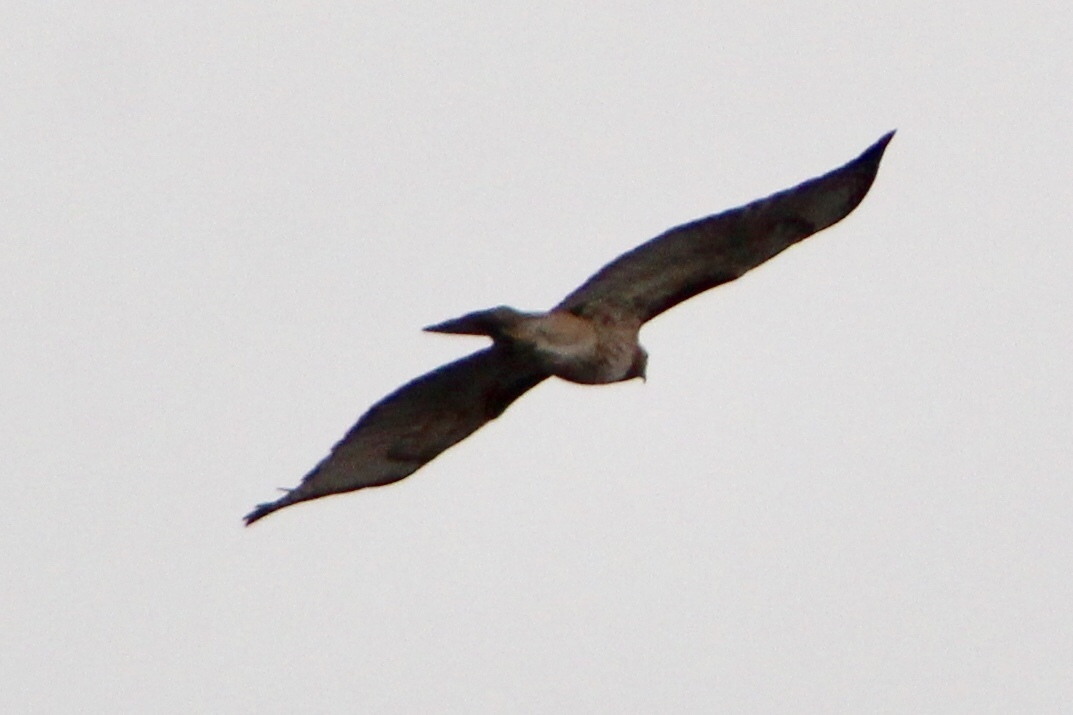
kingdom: Animalia
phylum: Chordata
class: Aves
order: Accipitriformes
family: Accipitridae
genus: Buteo
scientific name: Buteo jamaicensis
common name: Red-tailed hawk
